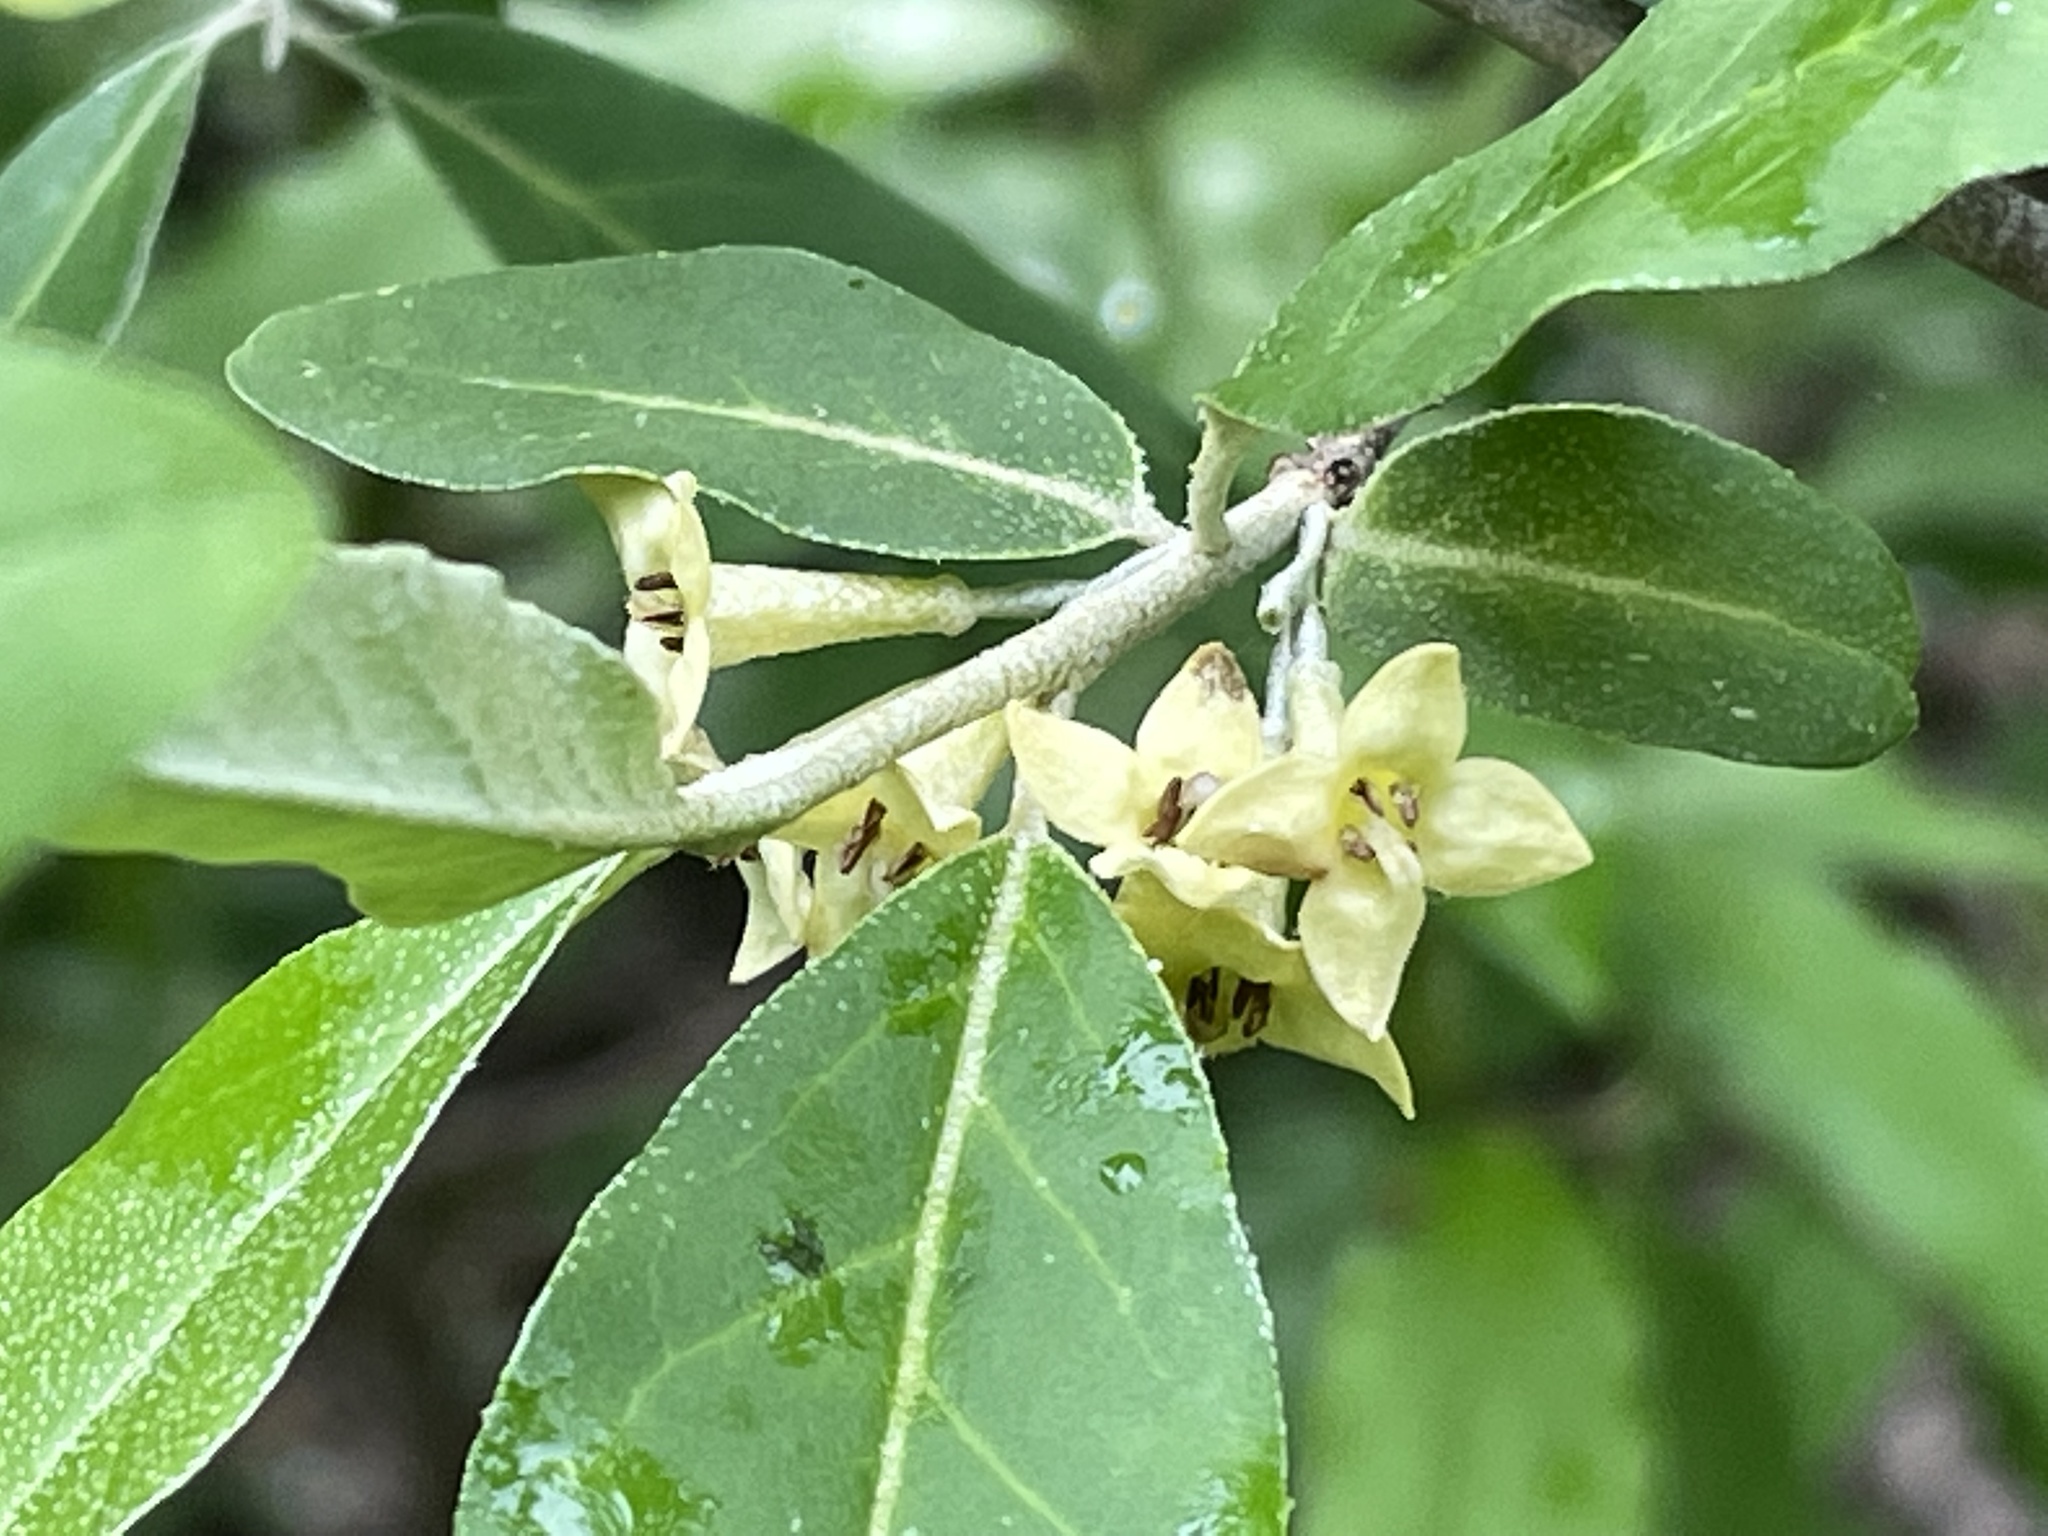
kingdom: Plantae
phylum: Tracheophyta
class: Magnoliopsida
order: Rosales
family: Elaeagnaceae
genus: Elaeagnus
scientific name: Elaeagnus umbellata
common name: Autumn olive
